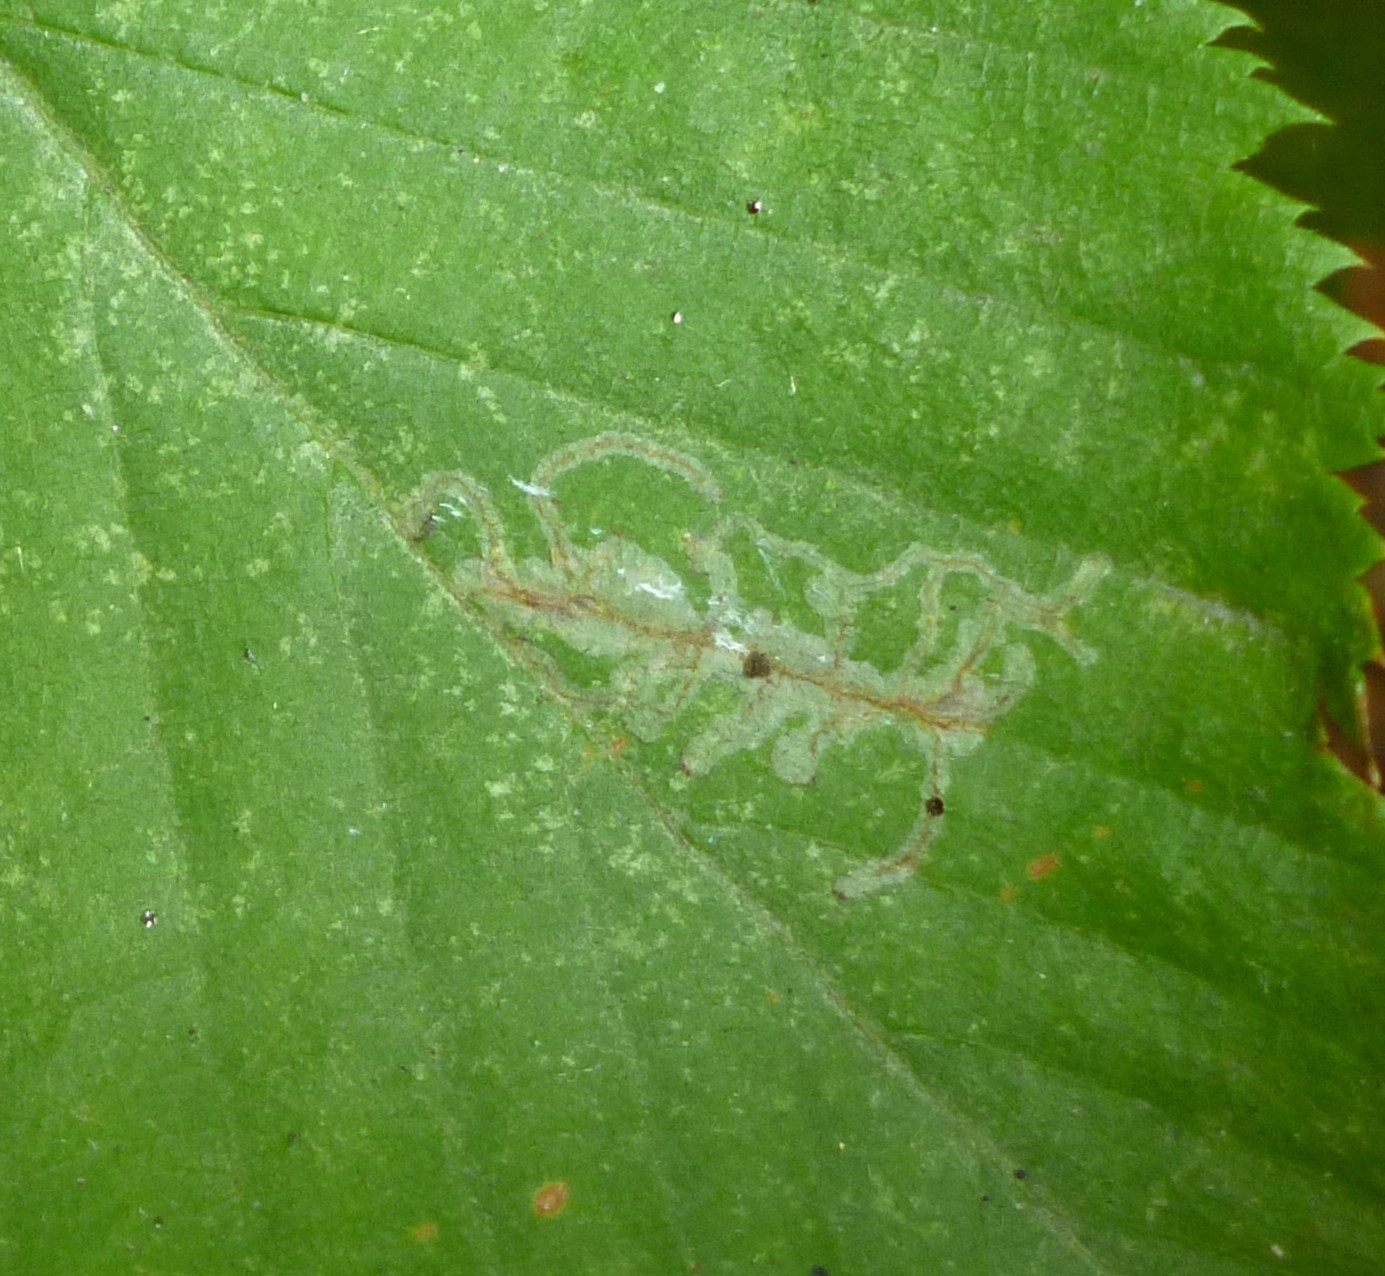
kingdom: Animalia
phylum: Arthropoda
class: Insecta
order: Lepidoptera
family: Gracillariidae
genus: Caloptilia
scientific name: Caloptilia ostryaeella
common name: Ironwood leafcone moth
